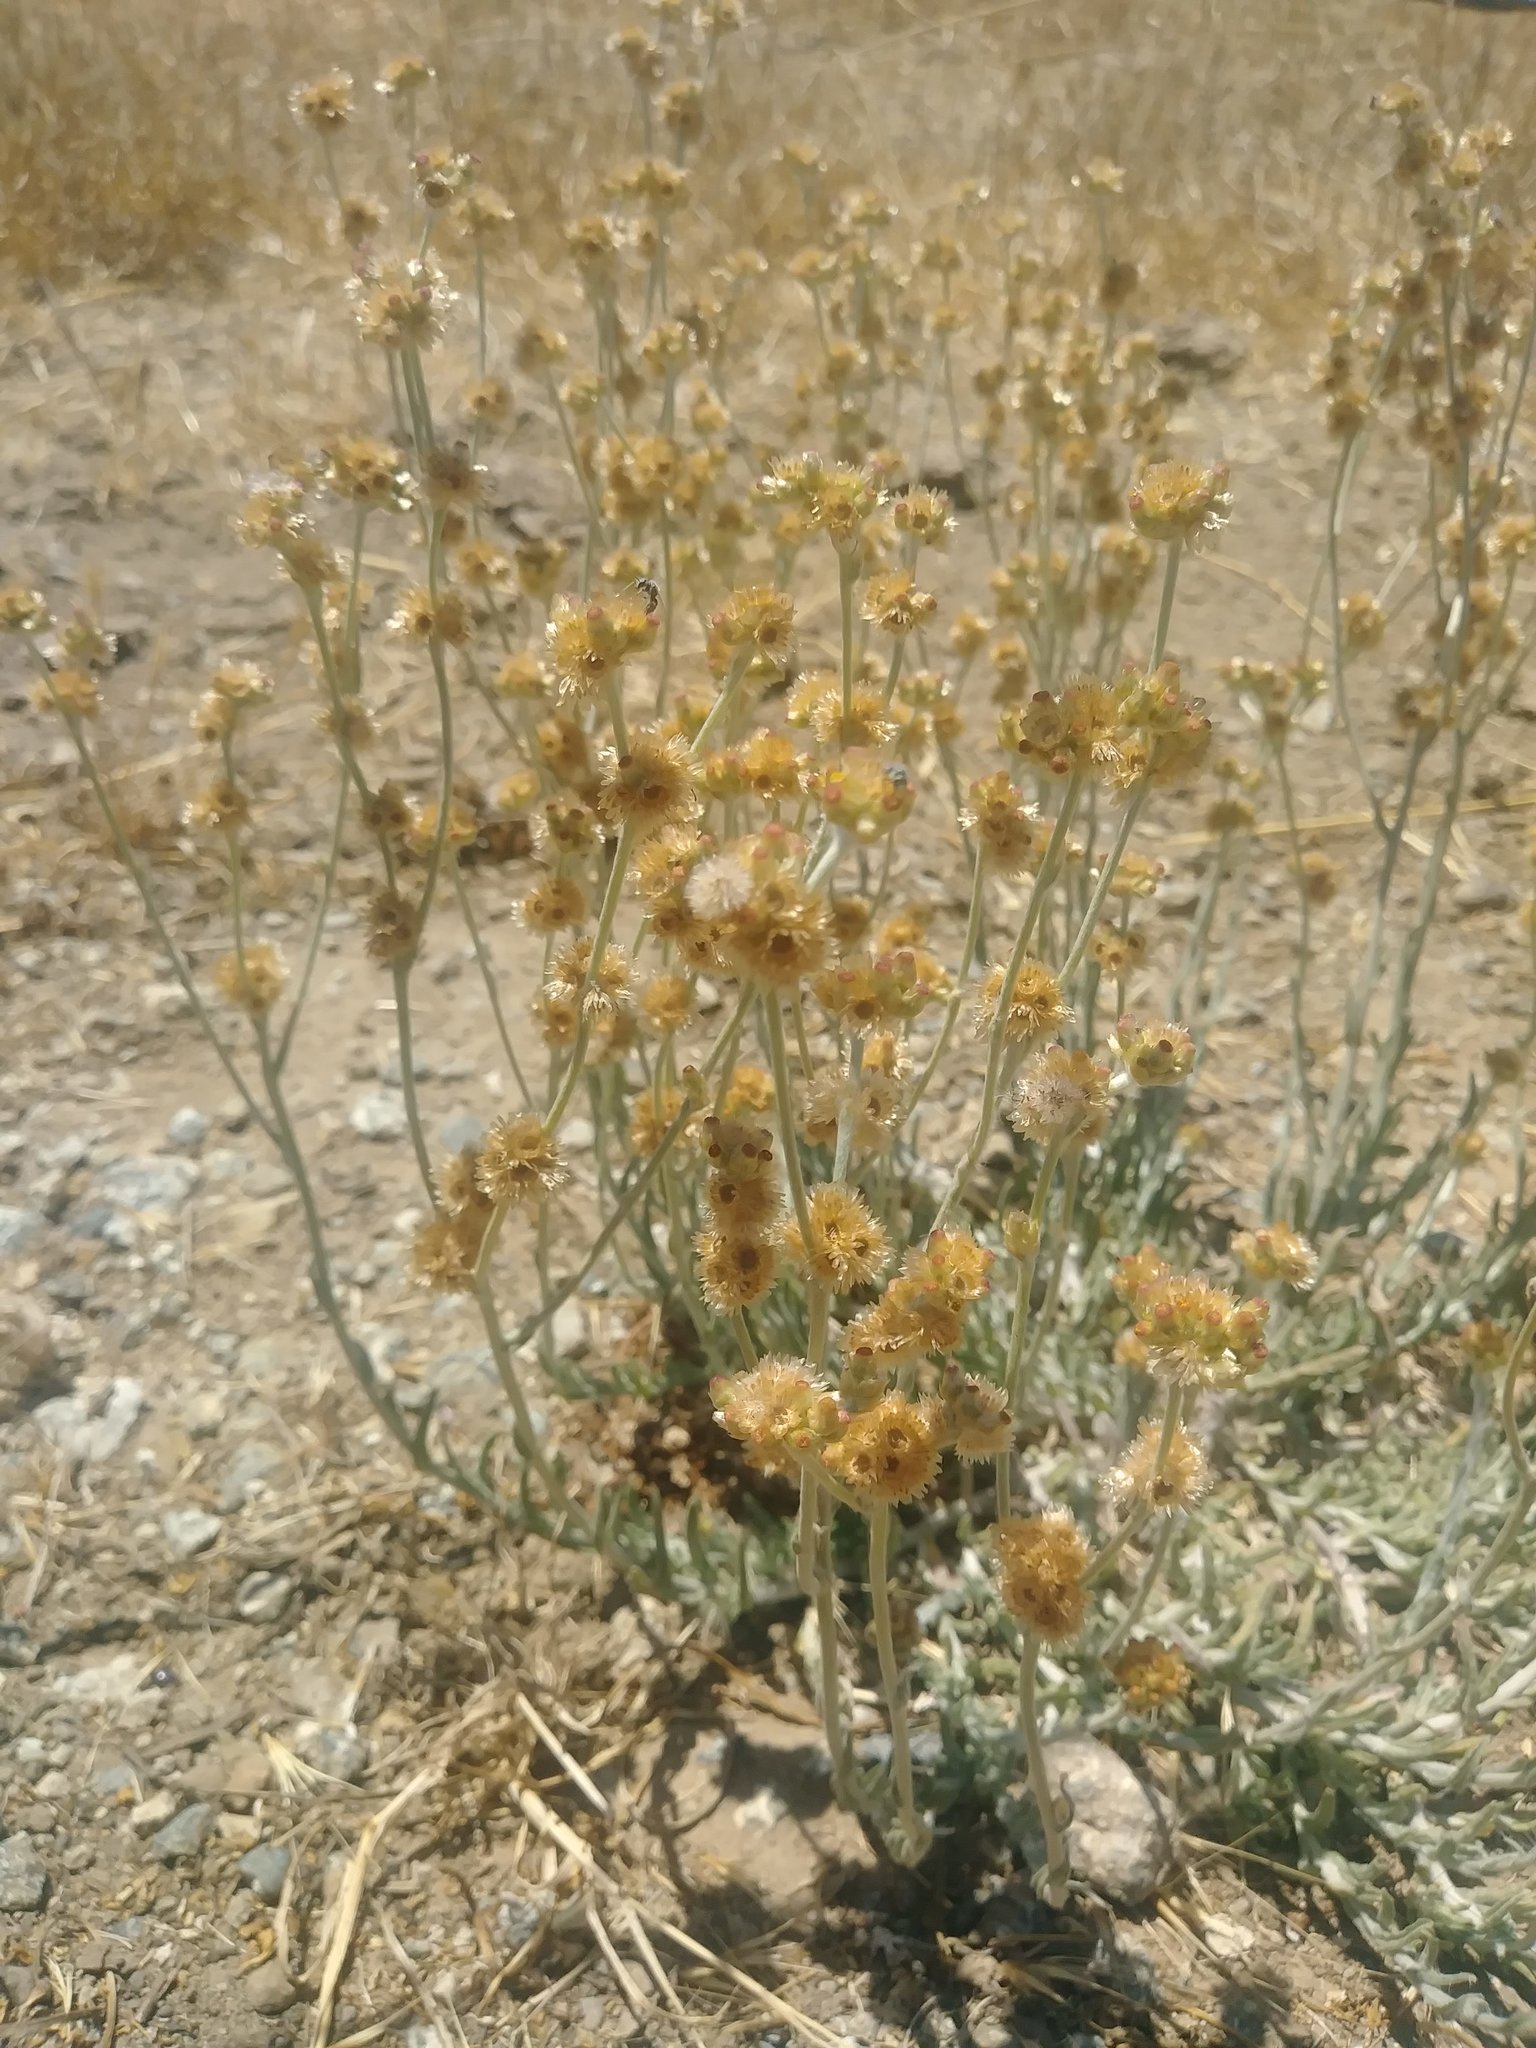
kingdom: Plantae
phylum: Tracheophyta
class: Magnoliopsida
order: Asterales
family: Asteraceae
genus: Helichrysum
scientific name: Helichrysum luteoalbum
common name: Daisy
